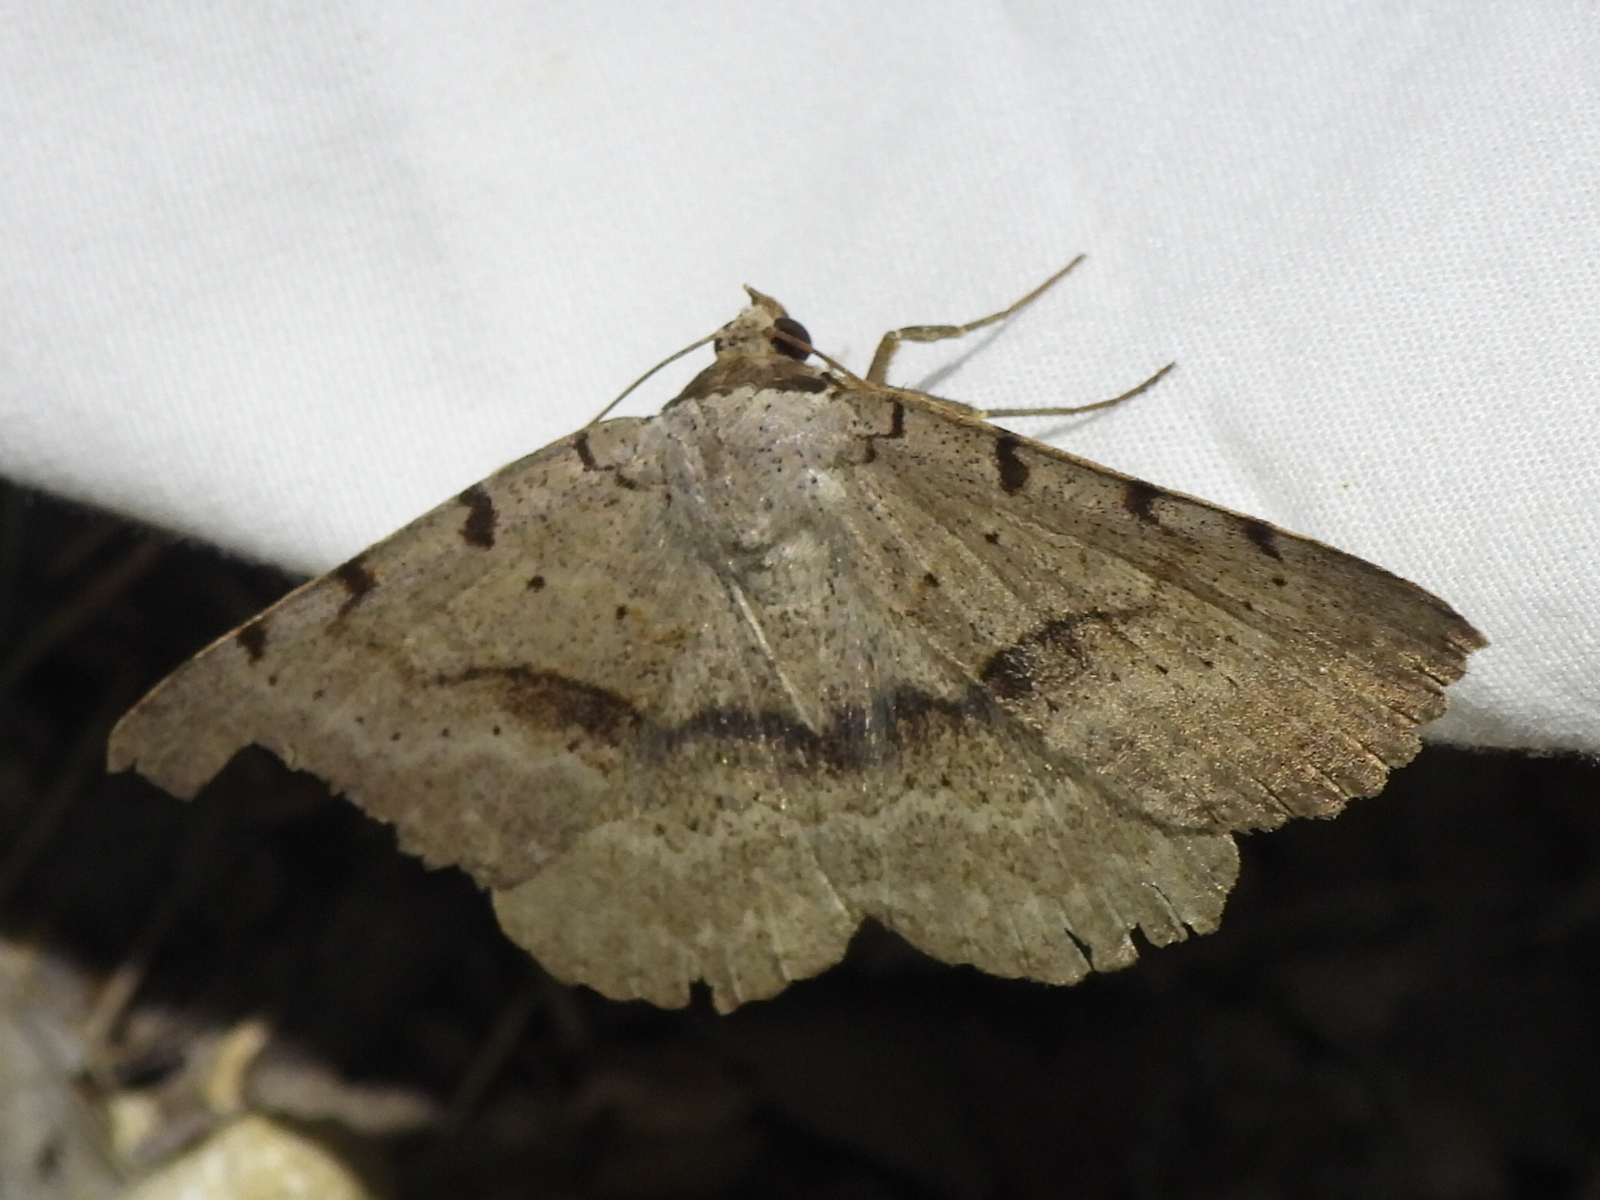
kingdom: Animalia
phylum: Arthropoda
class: Insecta
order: Lepidoptera
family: Erebidae
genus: Spiloloma
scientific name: Spiloloma lunilinea
